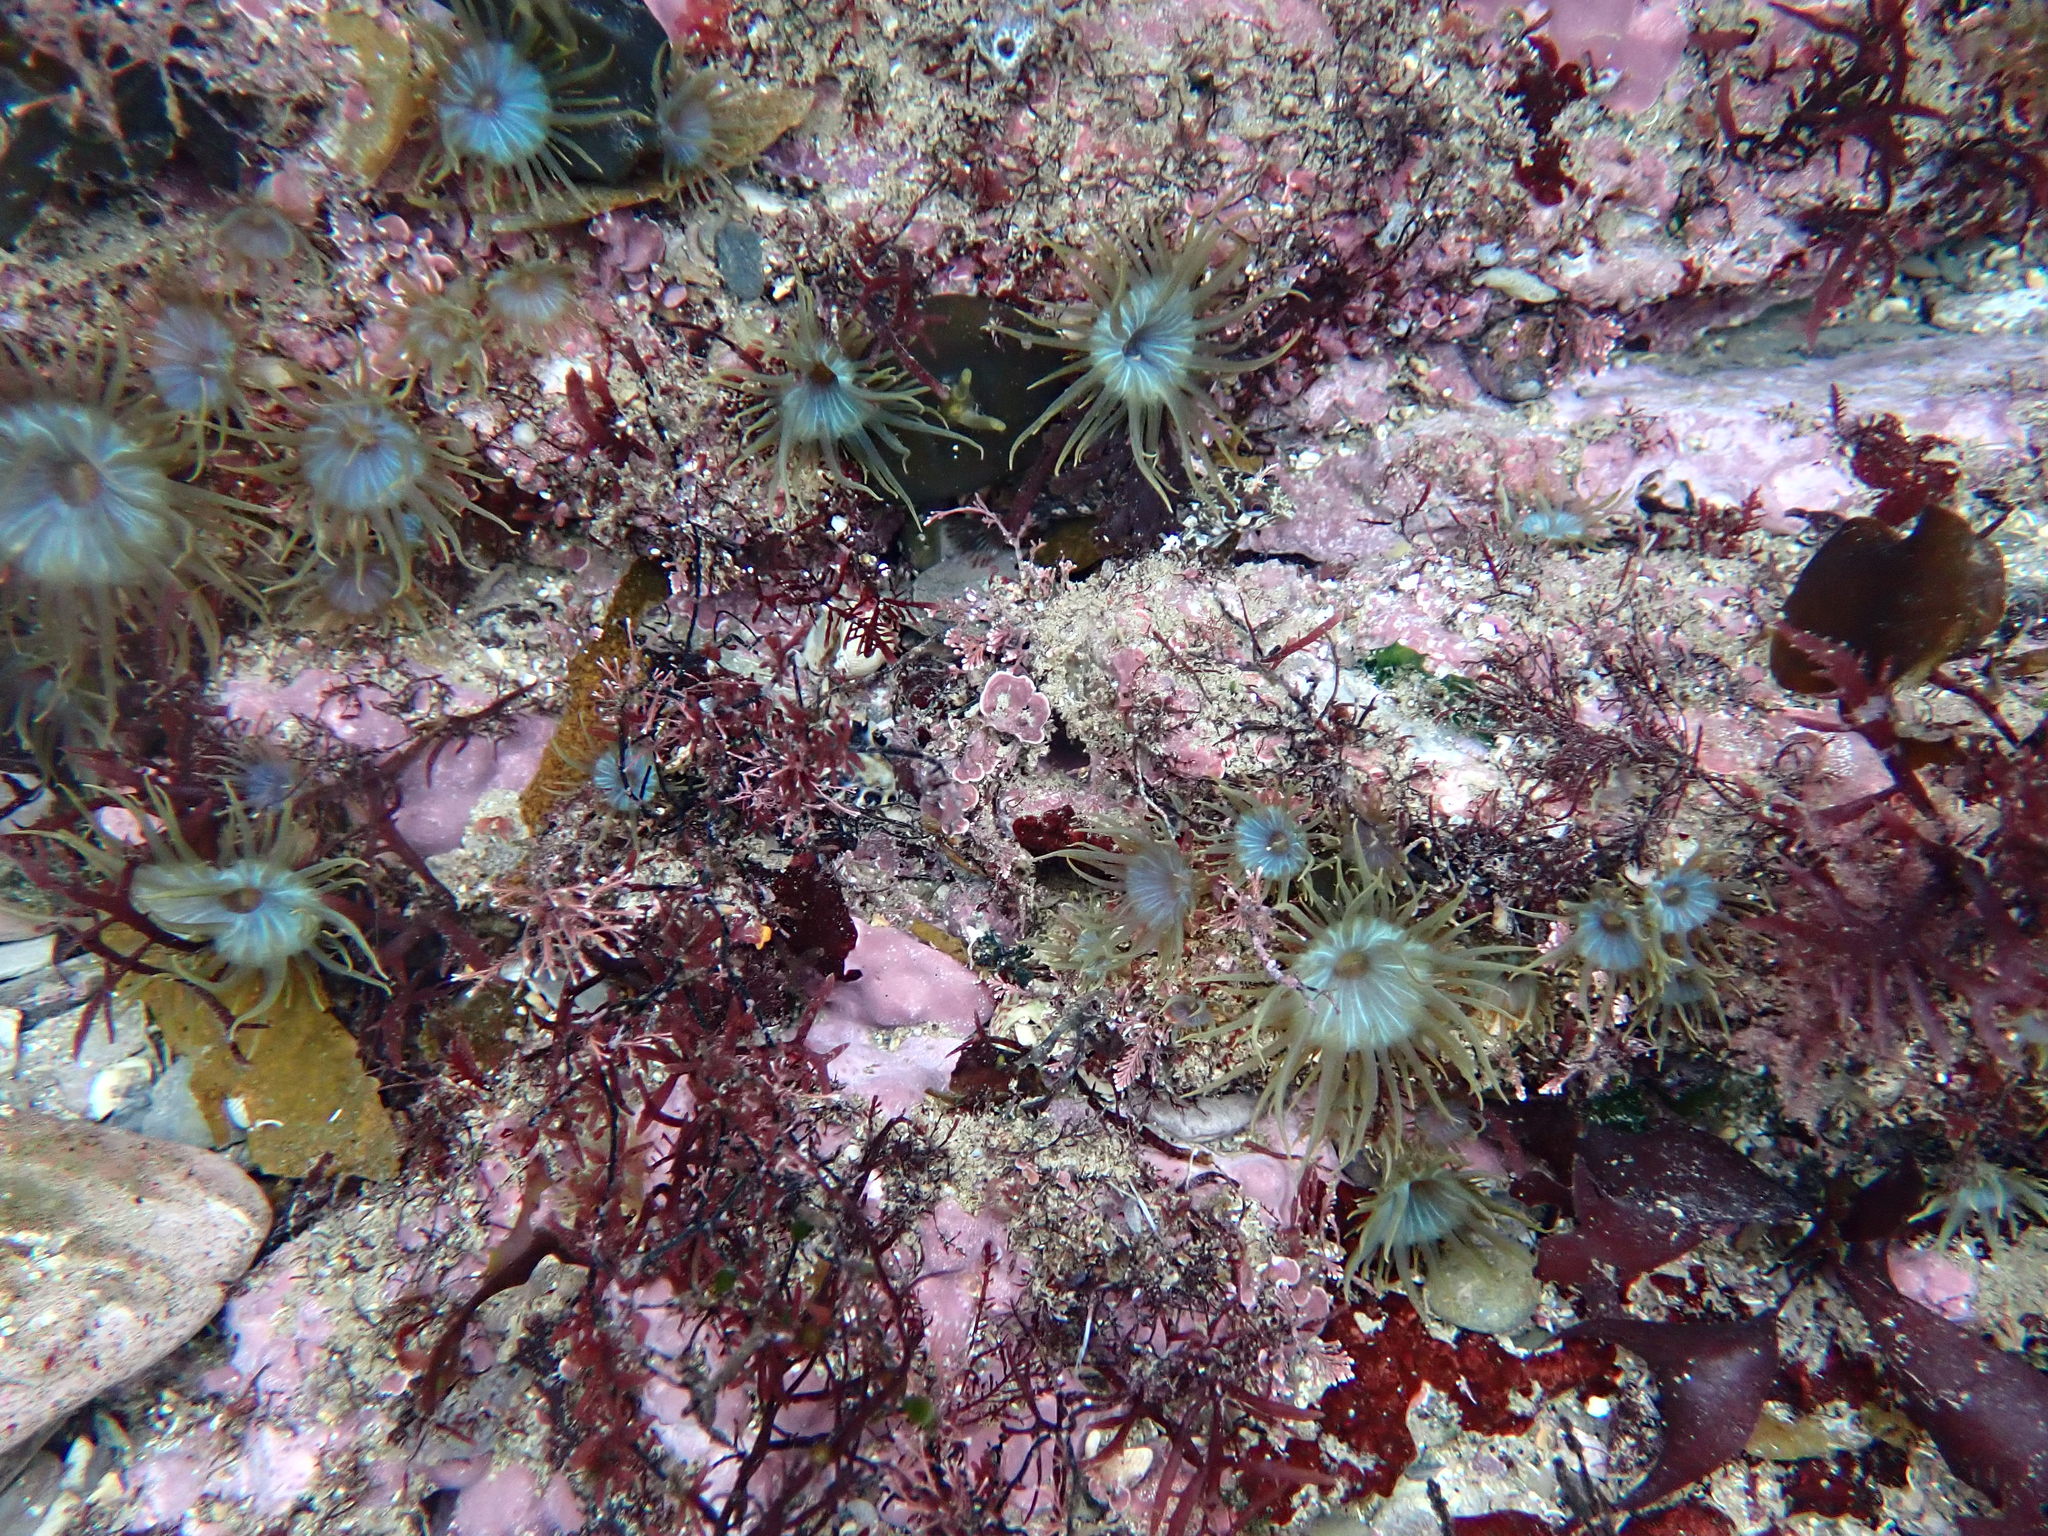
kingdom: Animalia
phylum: Cnidaria
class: Anthozoa
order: Actiniaria
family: Aiptasiidae
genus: Aiptasia
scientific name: Aiptasia couchii
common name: Trumpet anemone
